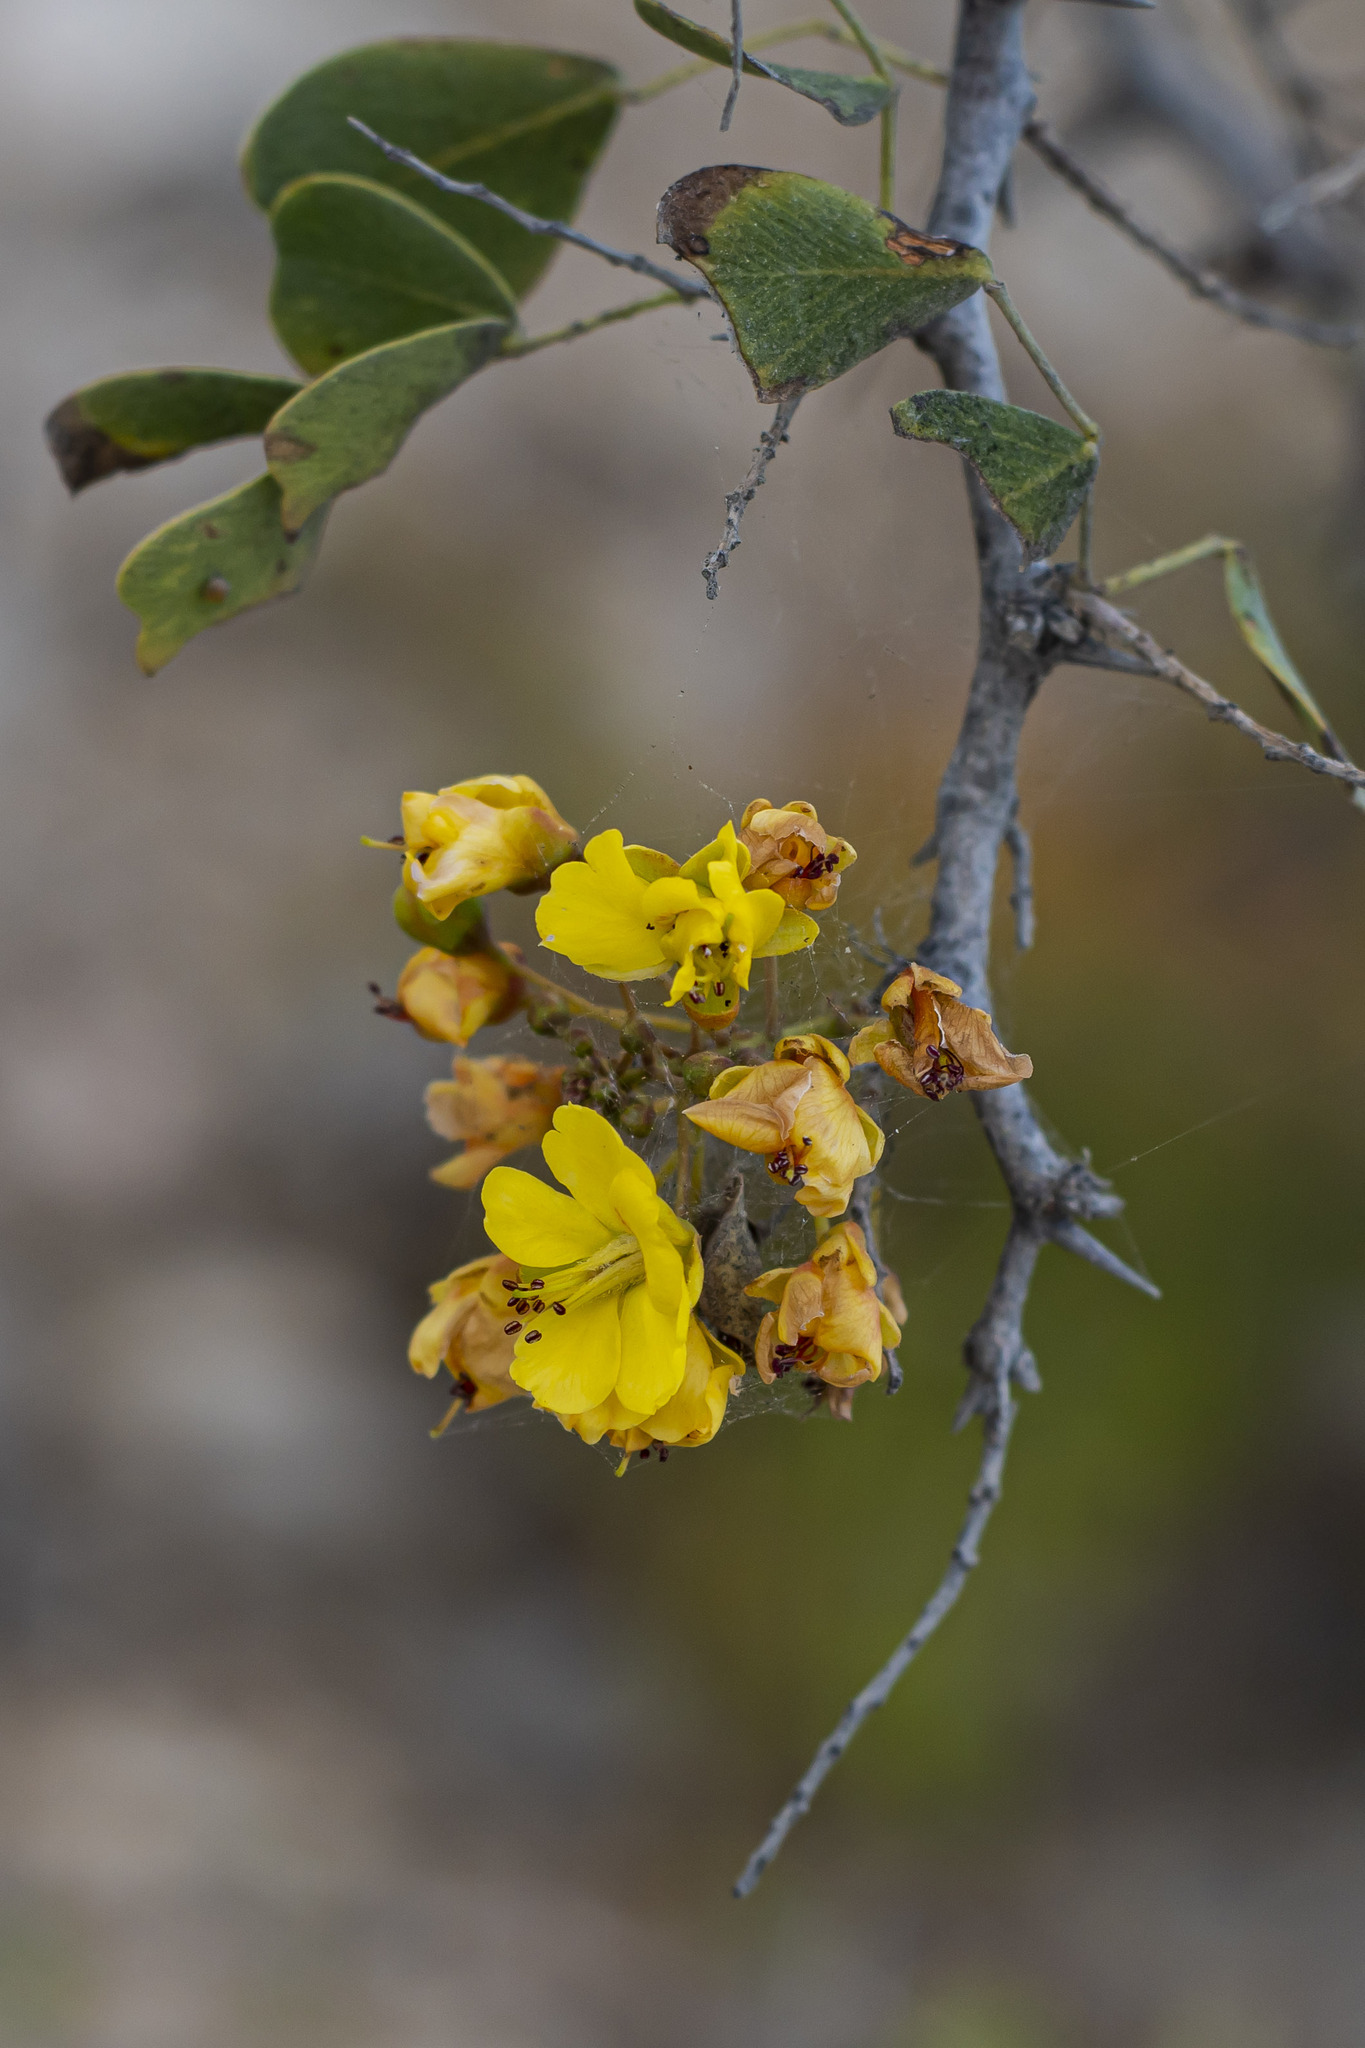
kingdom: Plantae
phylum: Tracheophyta
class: Magnoliopsida
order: Fabales
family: Fabaceae
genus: Haematoxylum
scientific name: Haematoxylum brasiletto
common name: Peachwood
